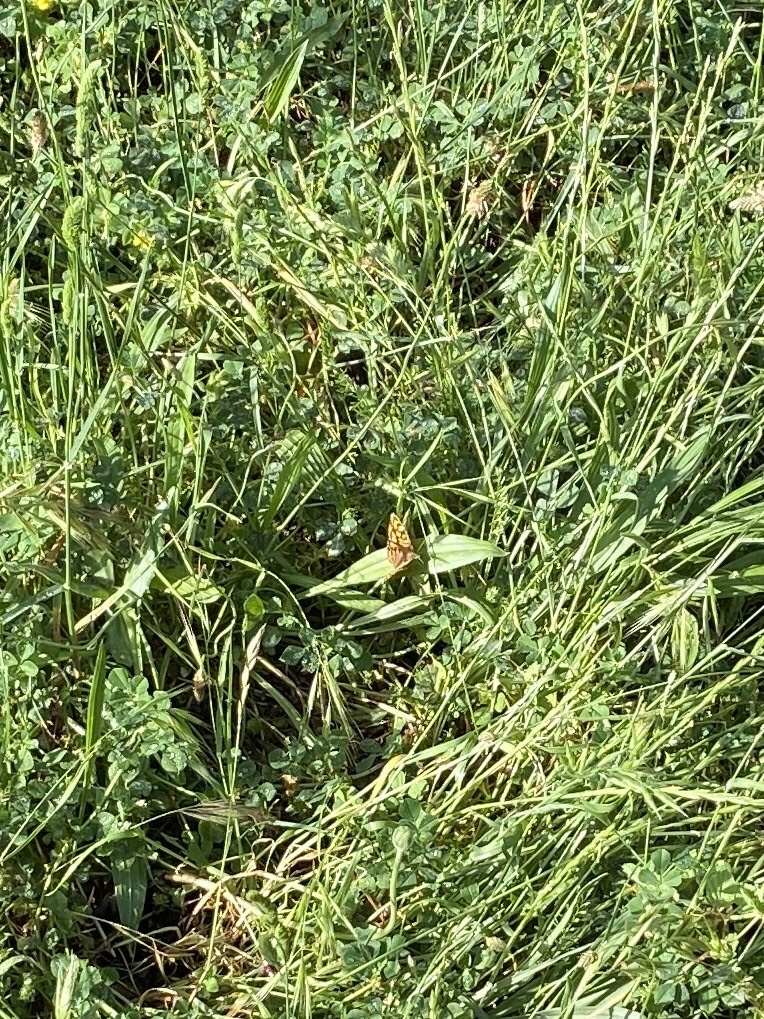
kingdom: Animalia
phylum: Arthropoda
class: Insecta
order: Lepidoptera
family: Nymphalidae
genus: Pararge
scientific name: Pararge aegeria
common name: Speckled wood
